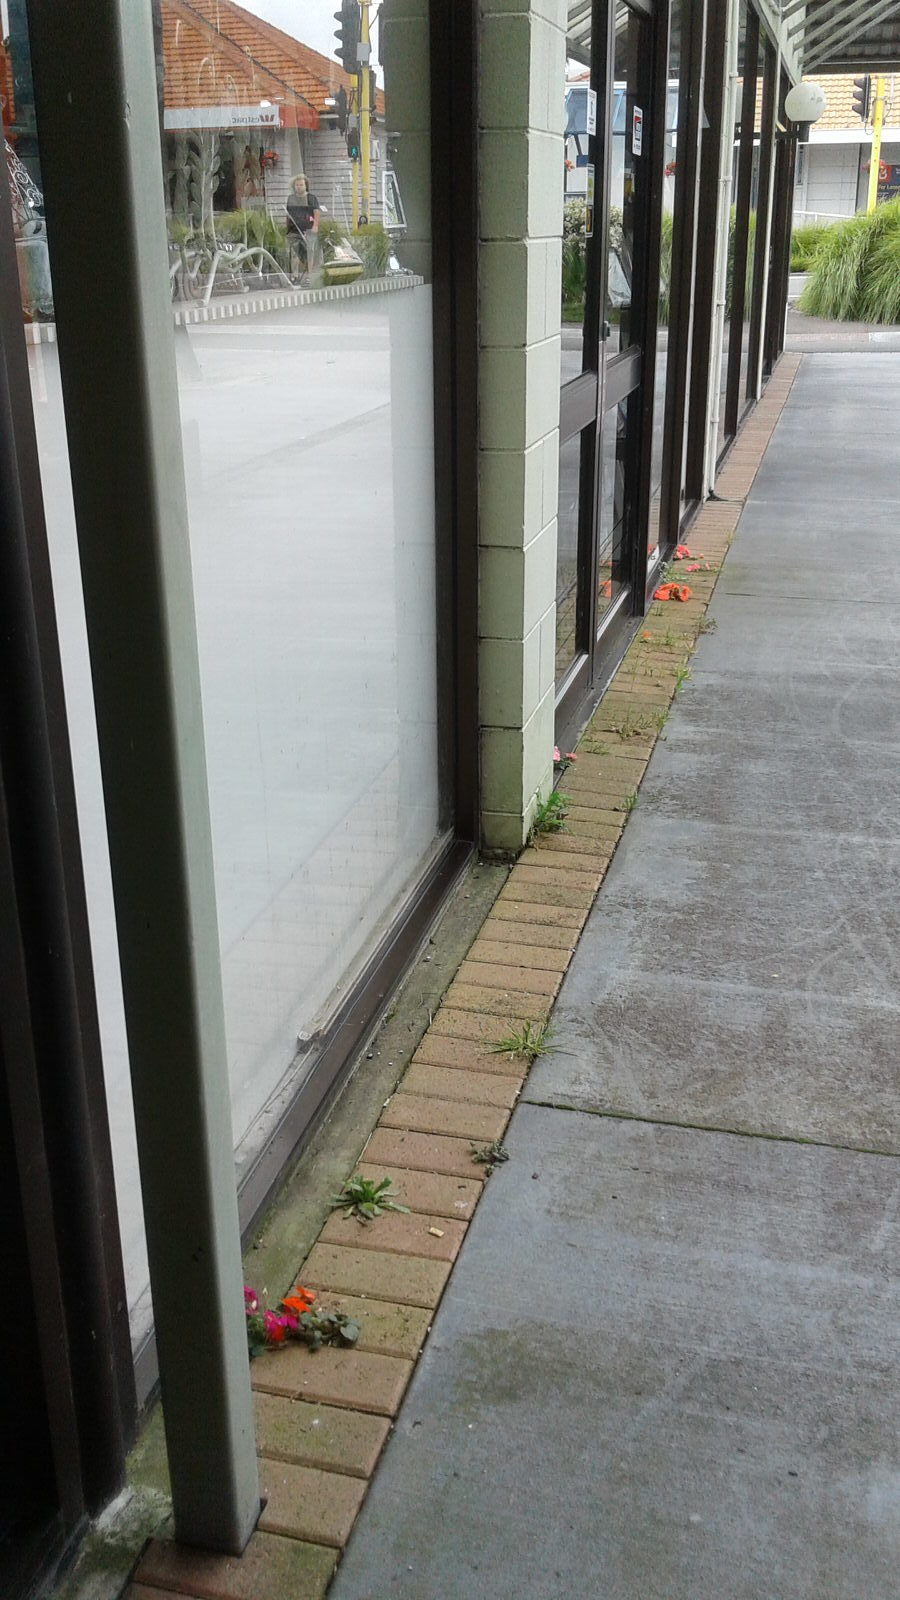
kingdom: Plantae
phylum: Tracheophyta
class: Magnoliopsida
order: Ericales
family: Balsaminaceae
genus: Impatiens
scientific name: Impatiens walleriana
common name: Buzzy lizzy
